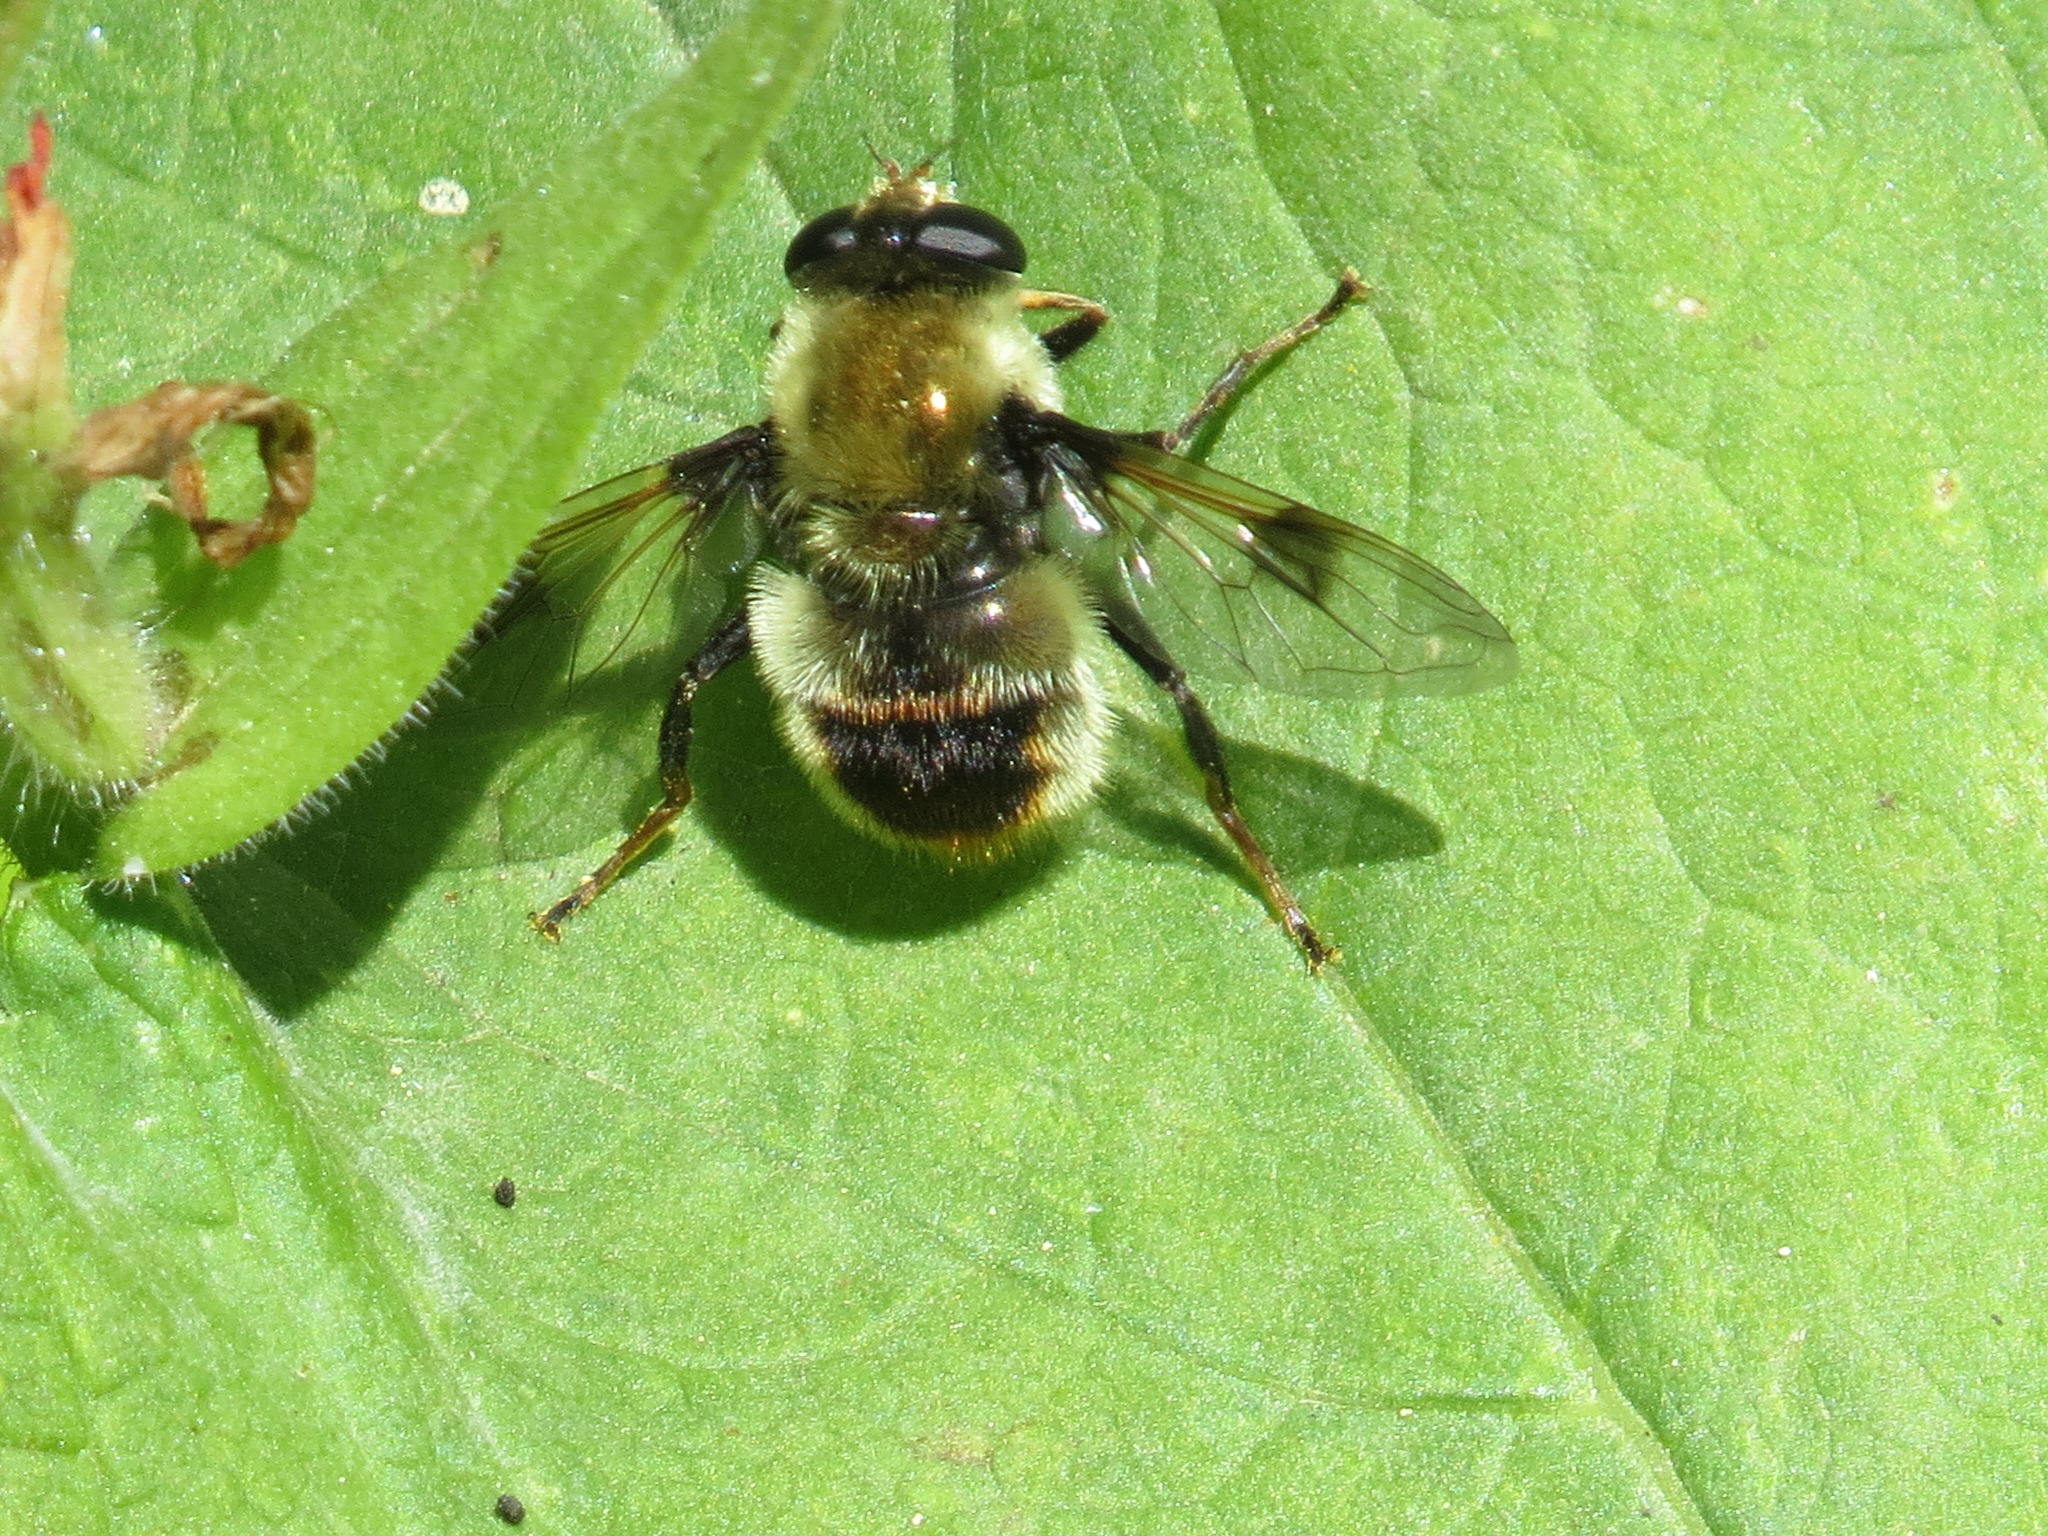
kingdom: Animalia
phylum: Arthropoda
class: Insecta
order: Diptera
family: Syrphidae
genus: Sericomyia
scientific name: Sericomyia flagrans
